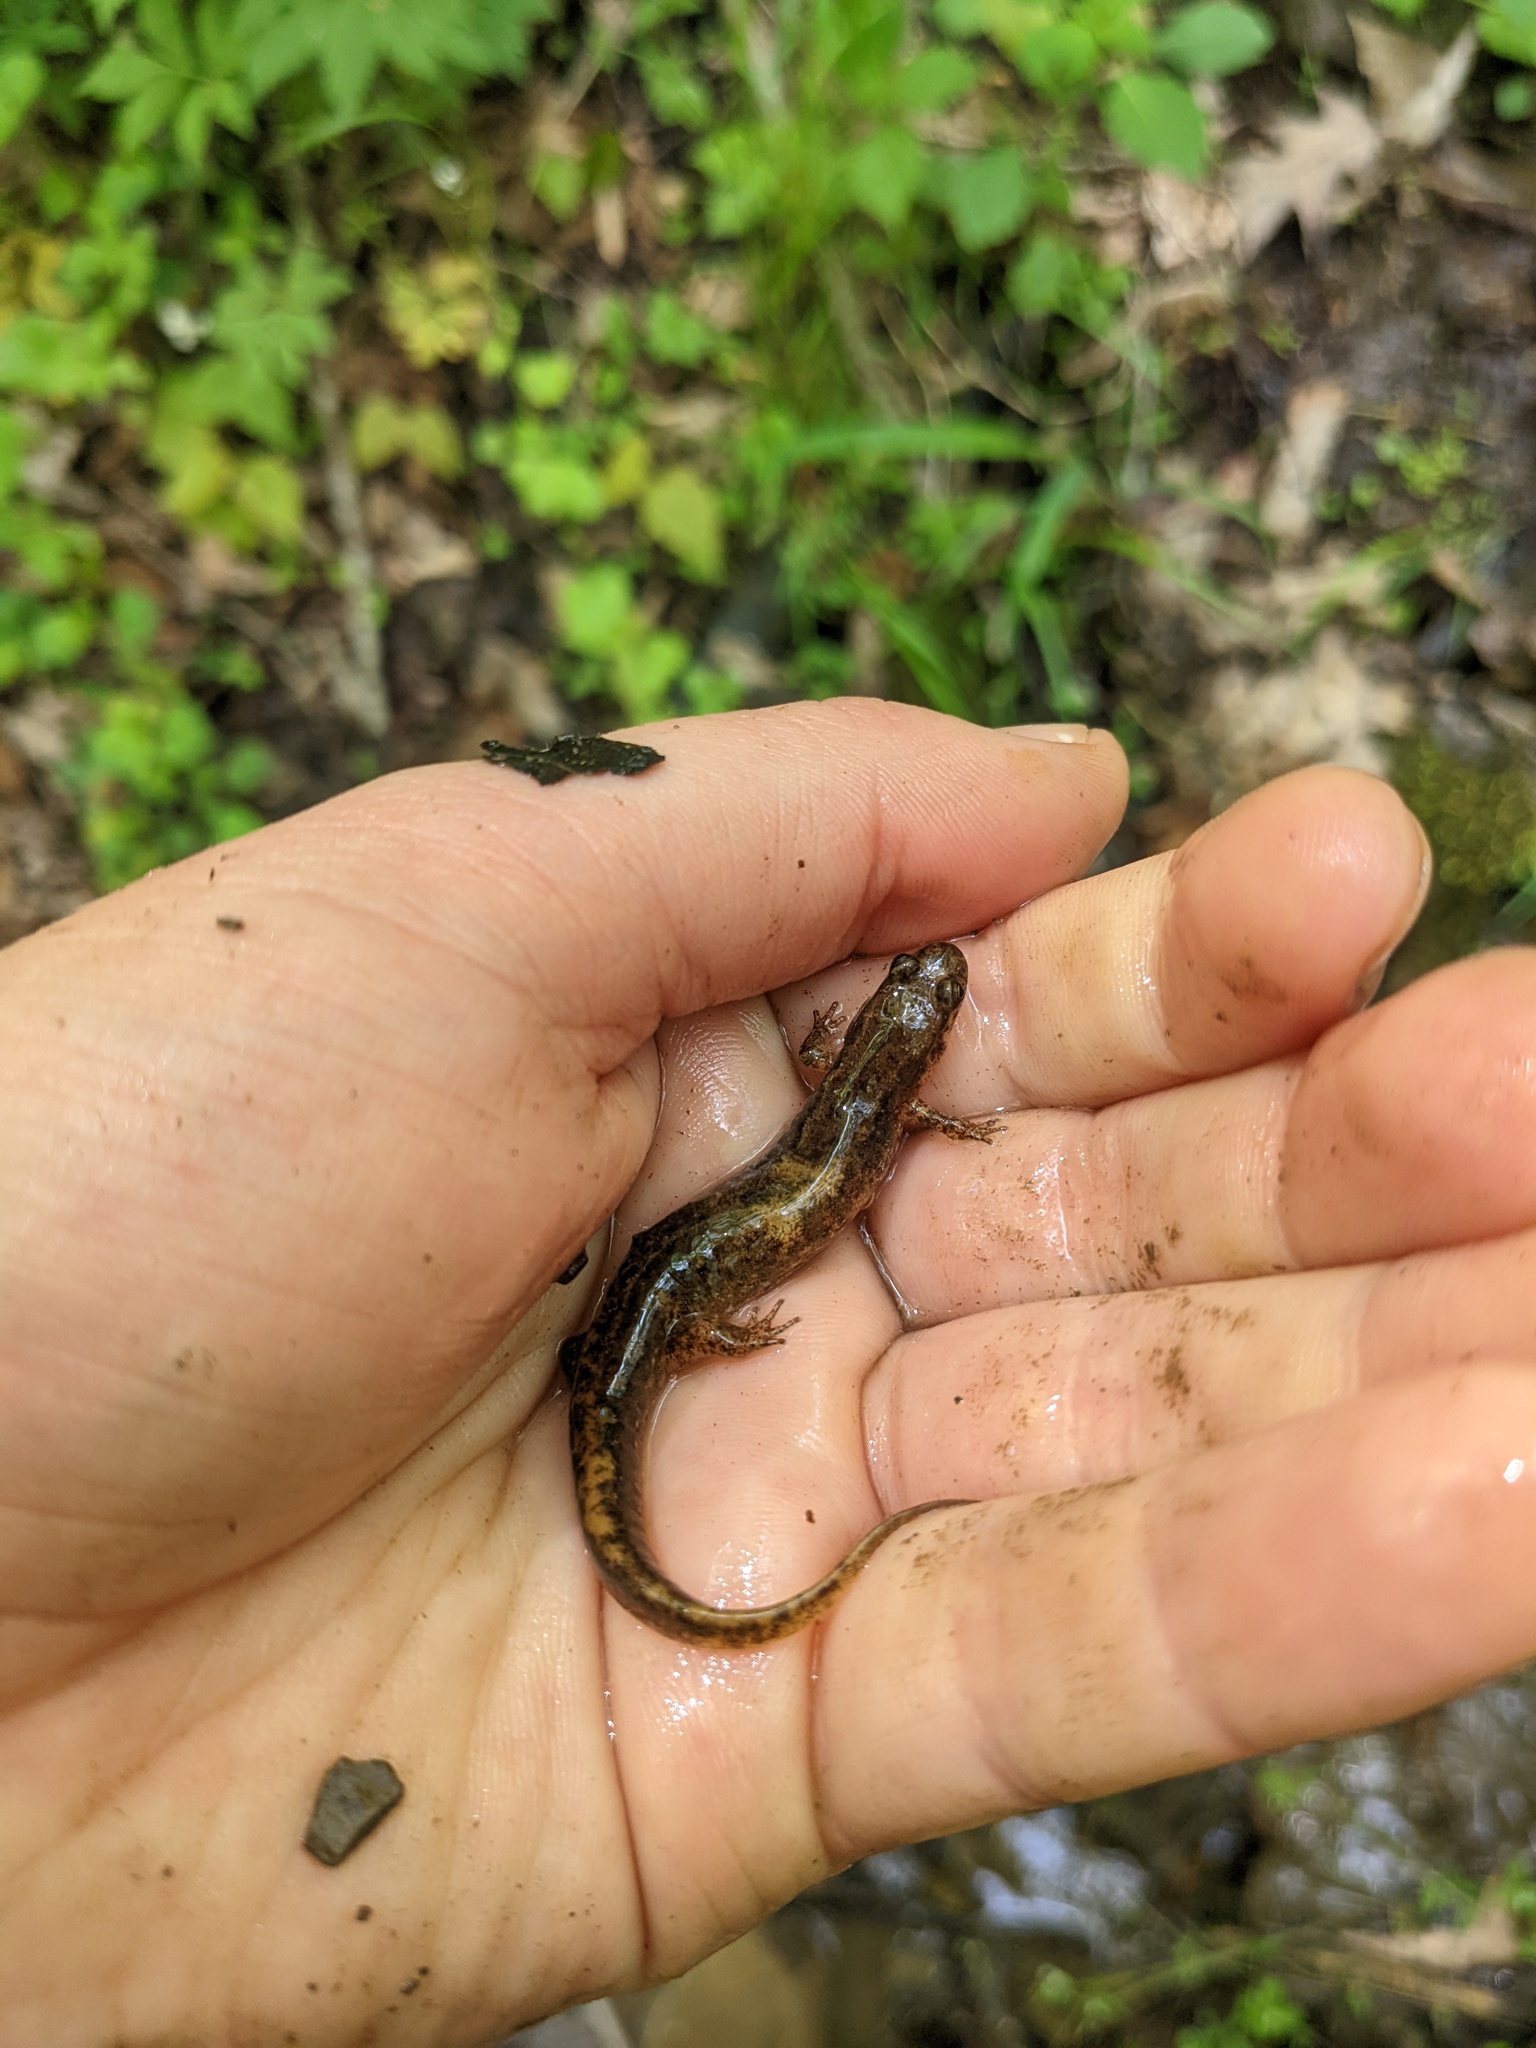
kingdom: Animalia
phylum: Chordata
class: Amphibia
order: Caudata
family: Plethodontidae
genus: Desmognathus
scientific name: Desmognathus fuscus
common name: Northern dusky salamander
